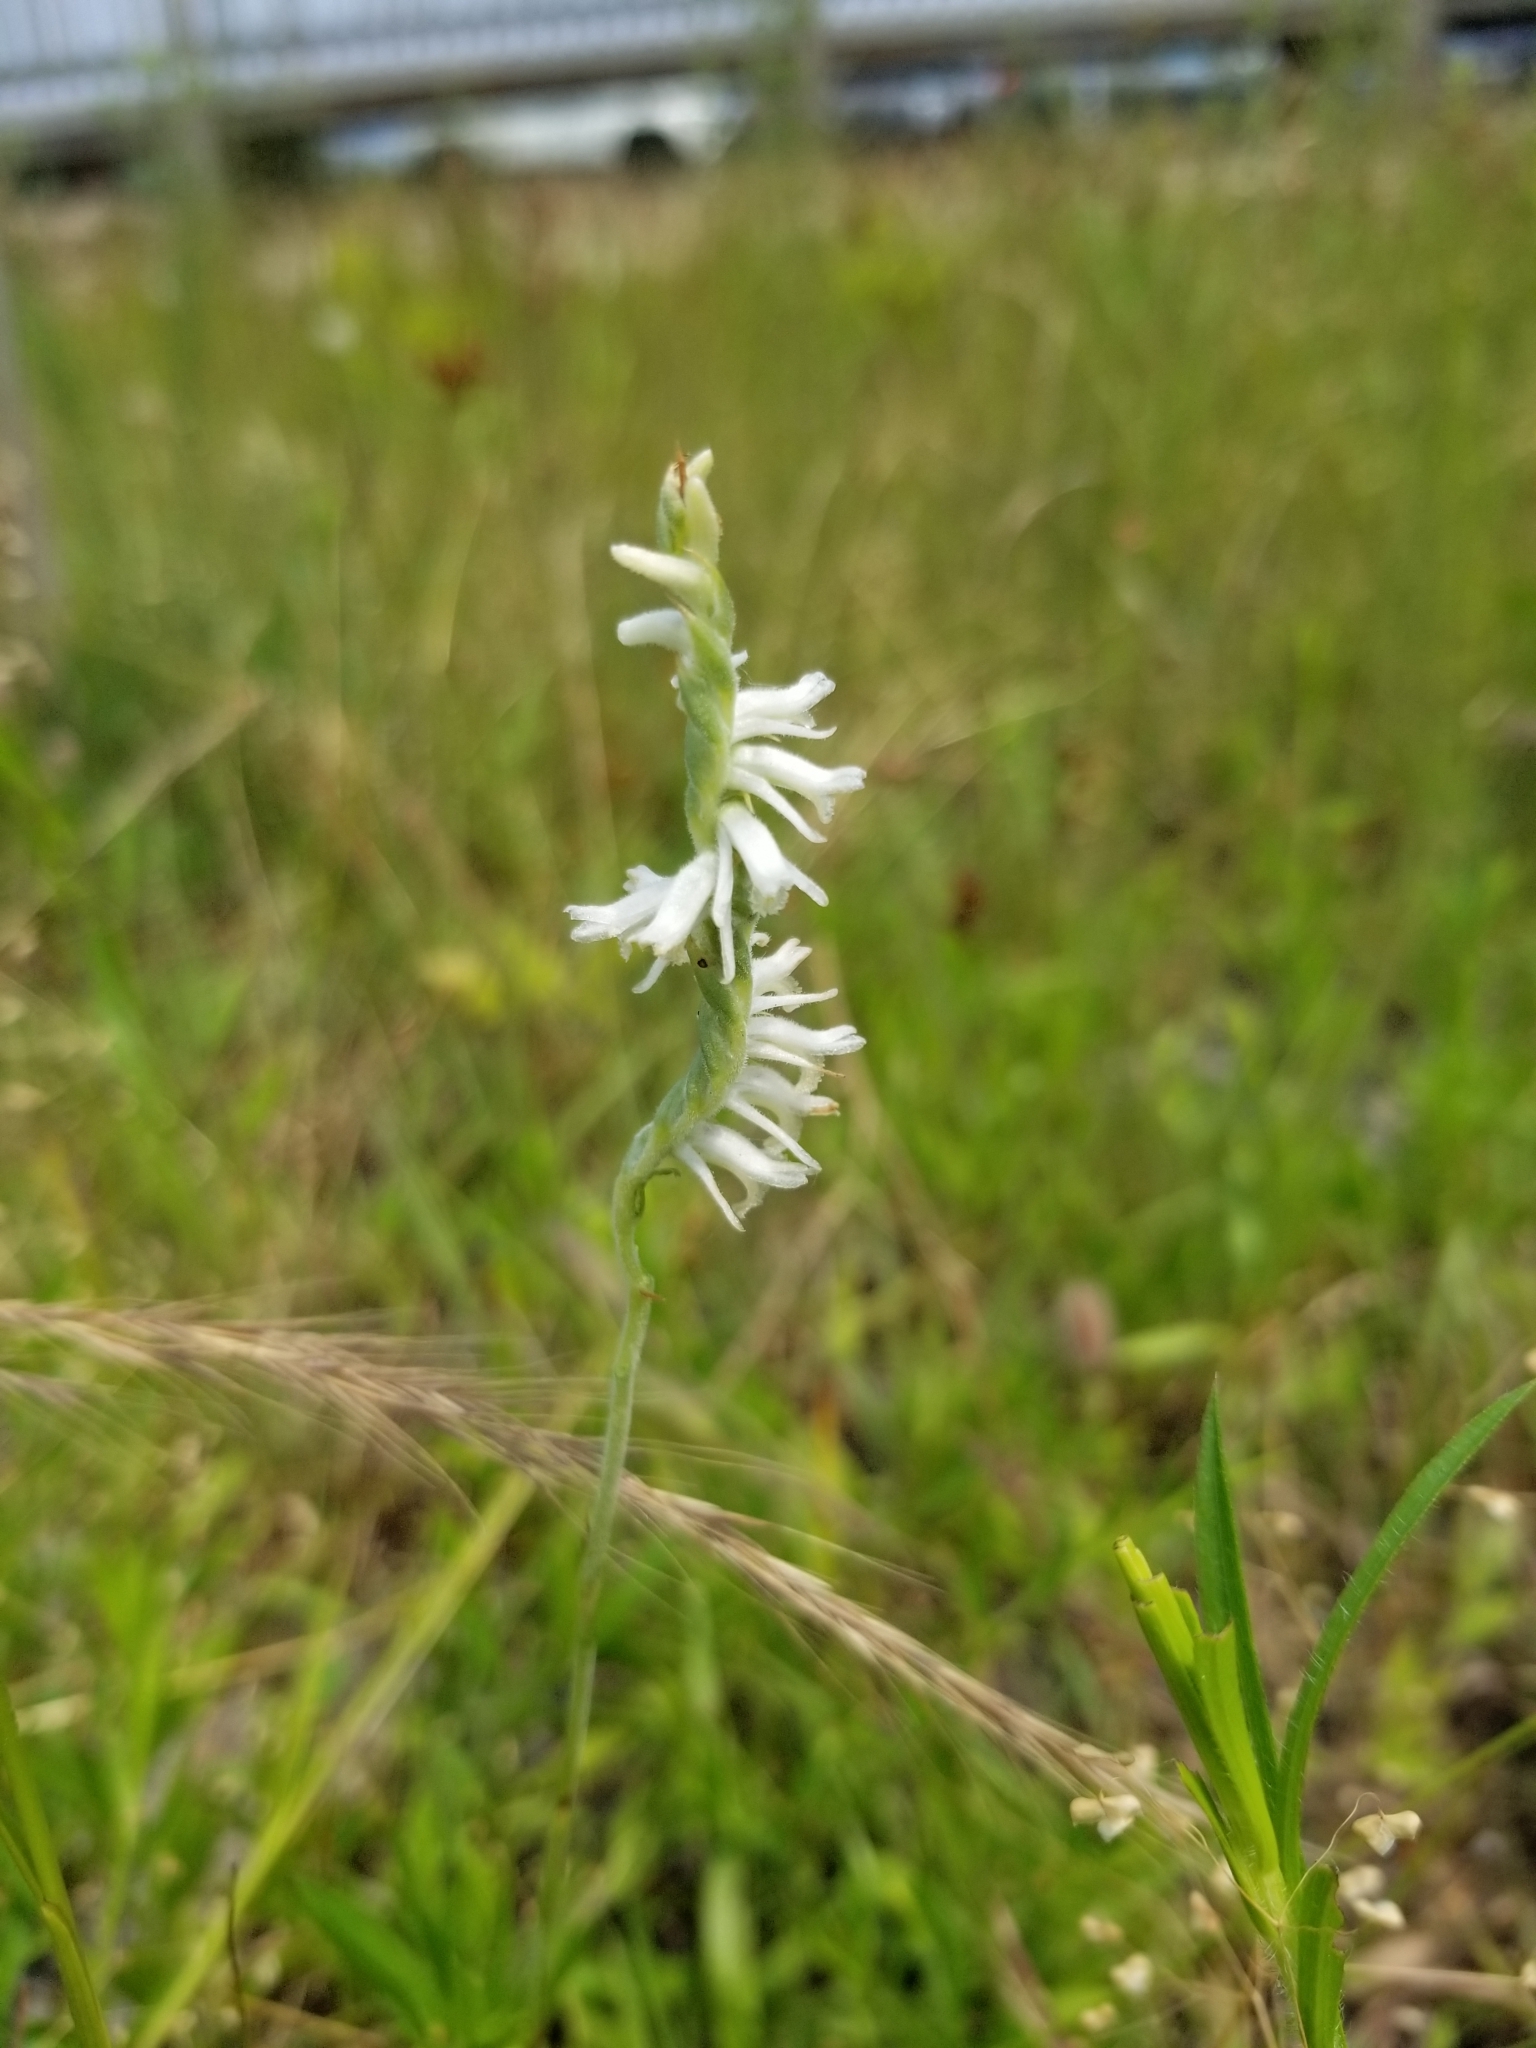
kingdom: Plantae
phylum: Tracheophyta
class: Liliopsida
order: Asparagales
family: Orchidaceae
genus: Spiranthes
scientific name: Spiranthes vernalis
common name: Spring ladies'-tresses
